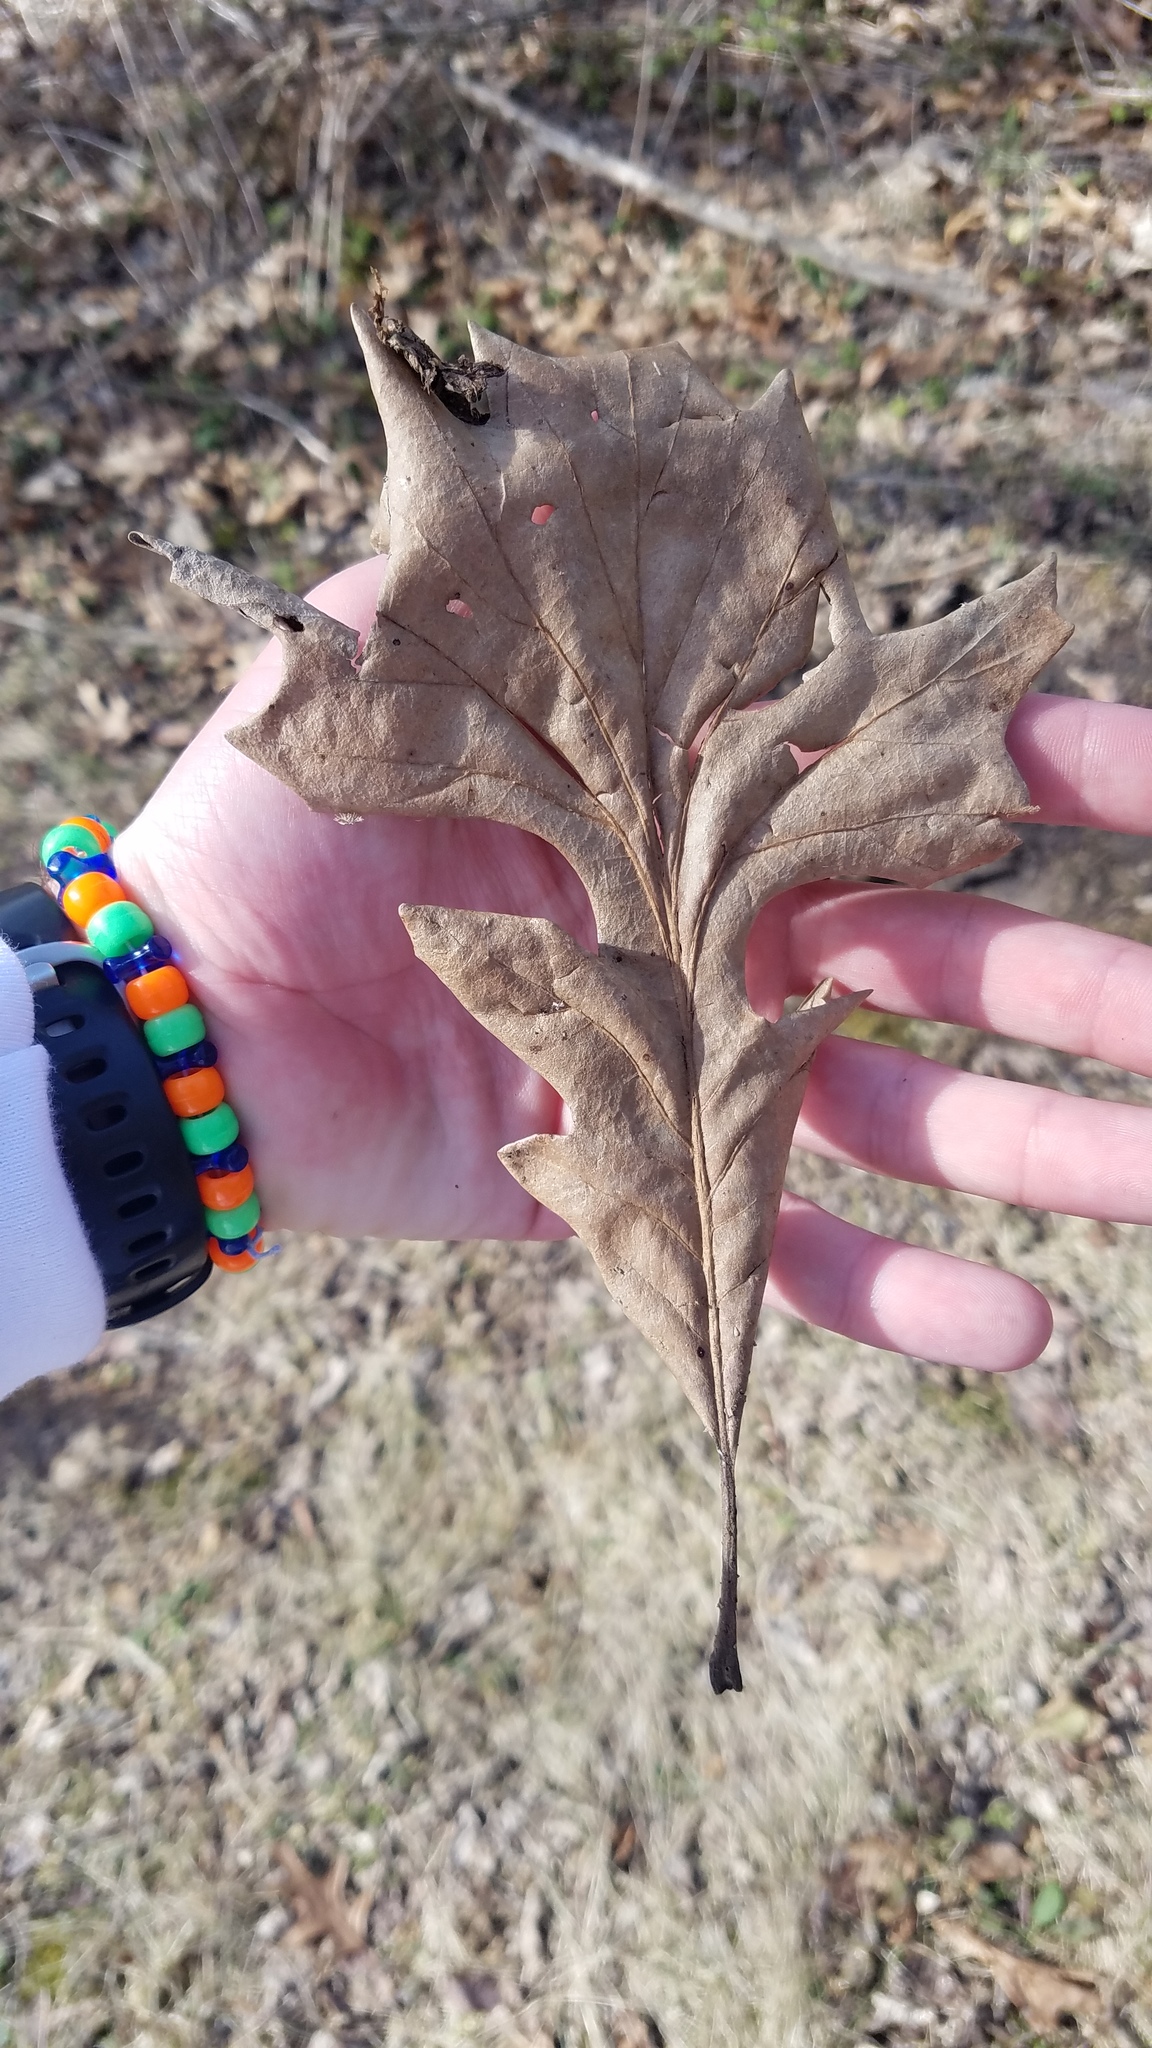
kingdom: Plantae
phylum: Tracheophyta
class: Magnoliopsida
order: Fagales
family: Fagaceae
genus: Quercus
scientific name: Quercus macrocarpa
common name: Bur oak
